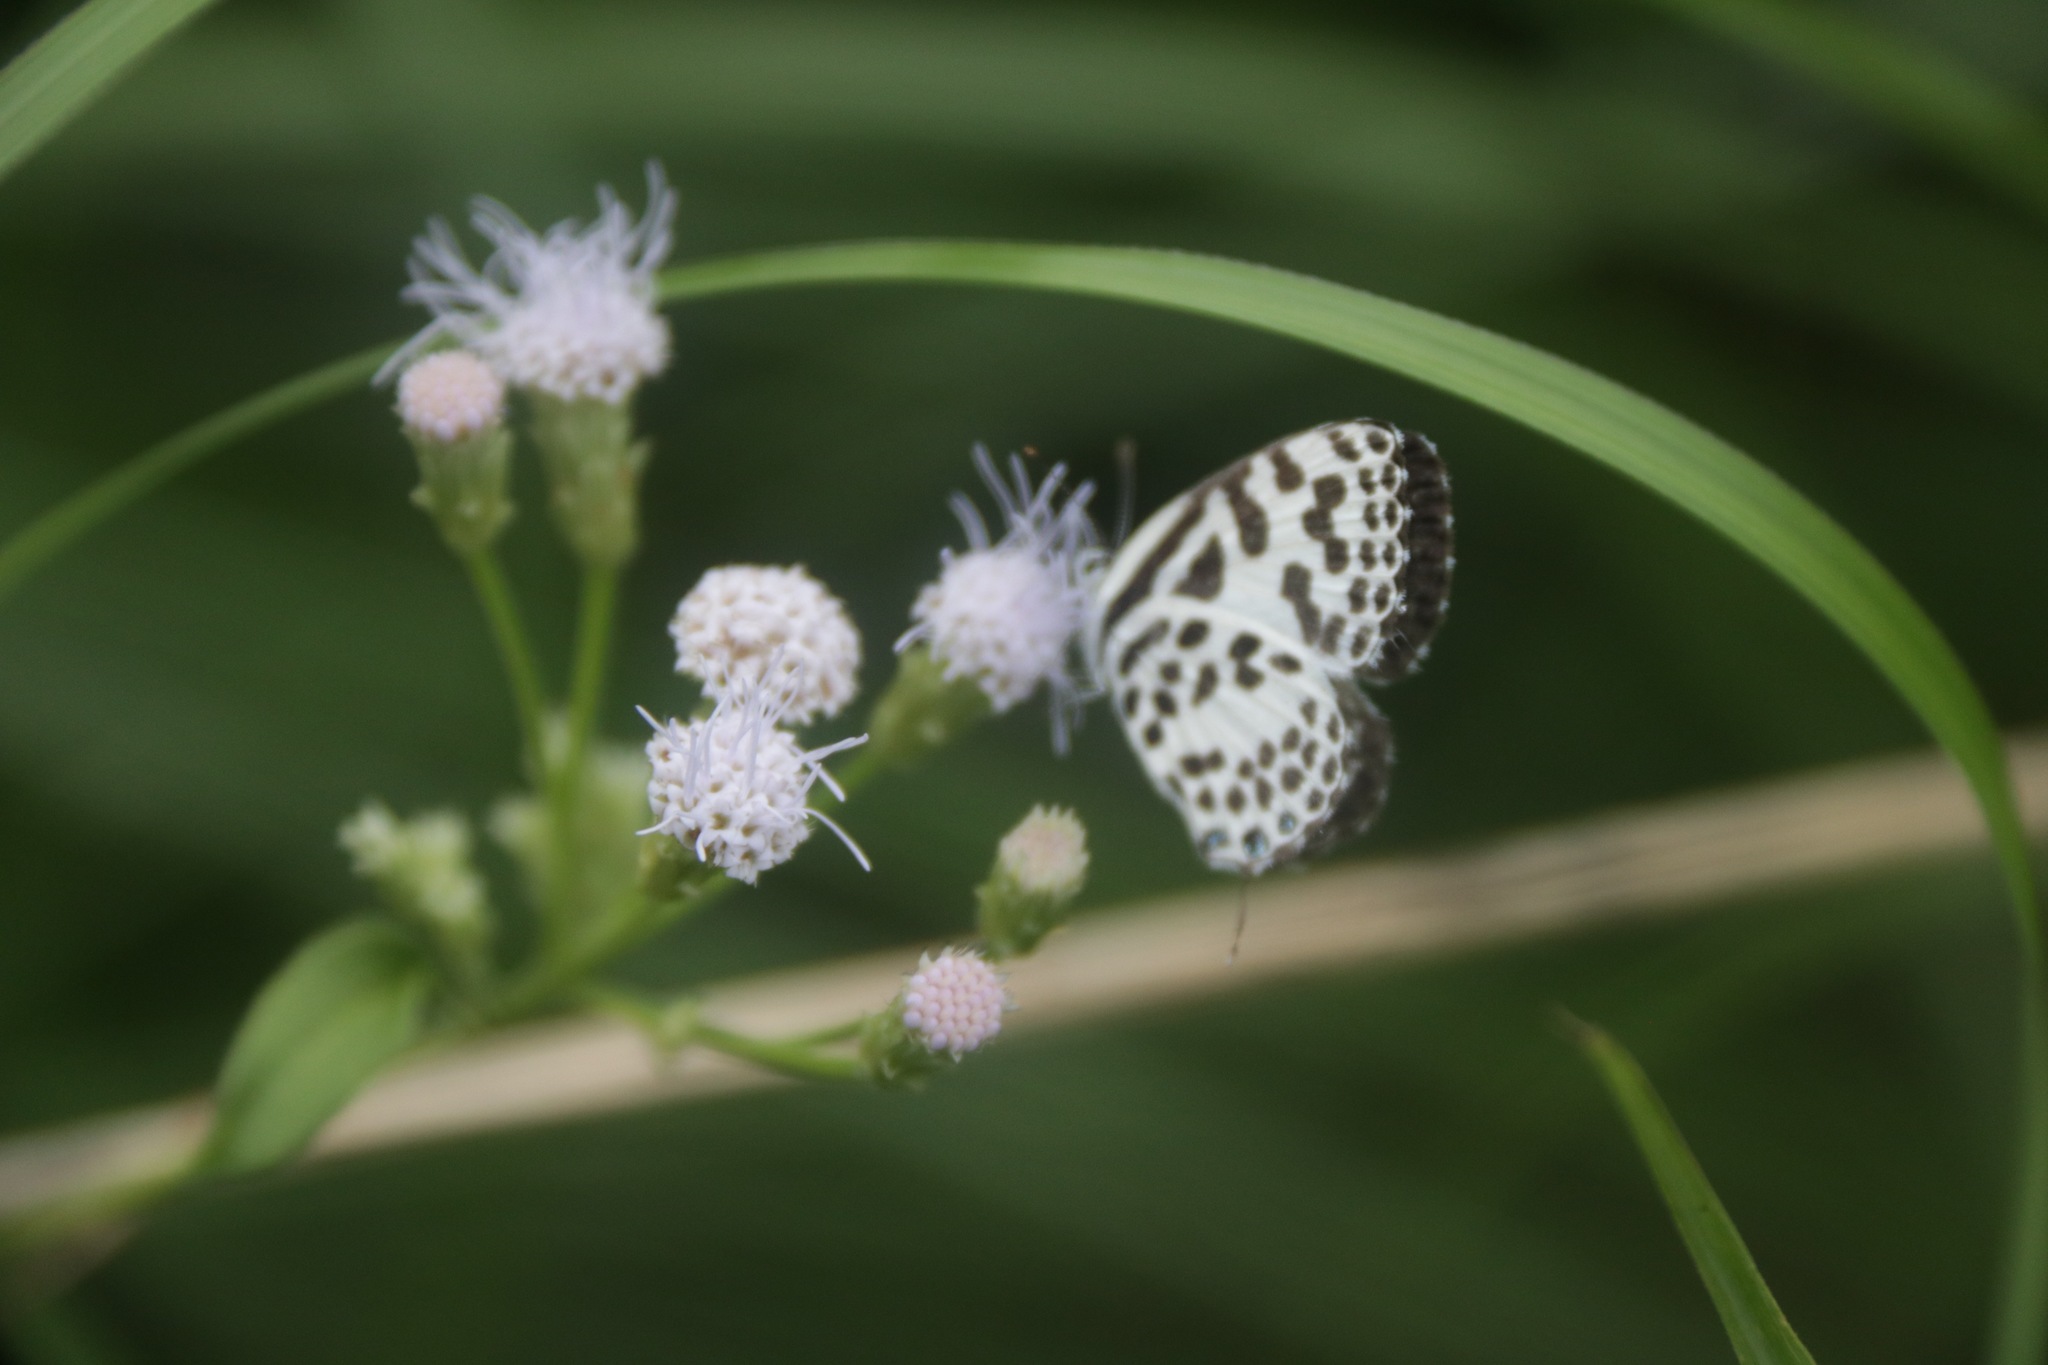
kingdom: Animalia
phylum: Arthropoda
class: Insecta
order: Lepidoptera
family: Lycaenidae
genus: Castalius
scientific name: Castalius rosimon
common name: Common pierrot
